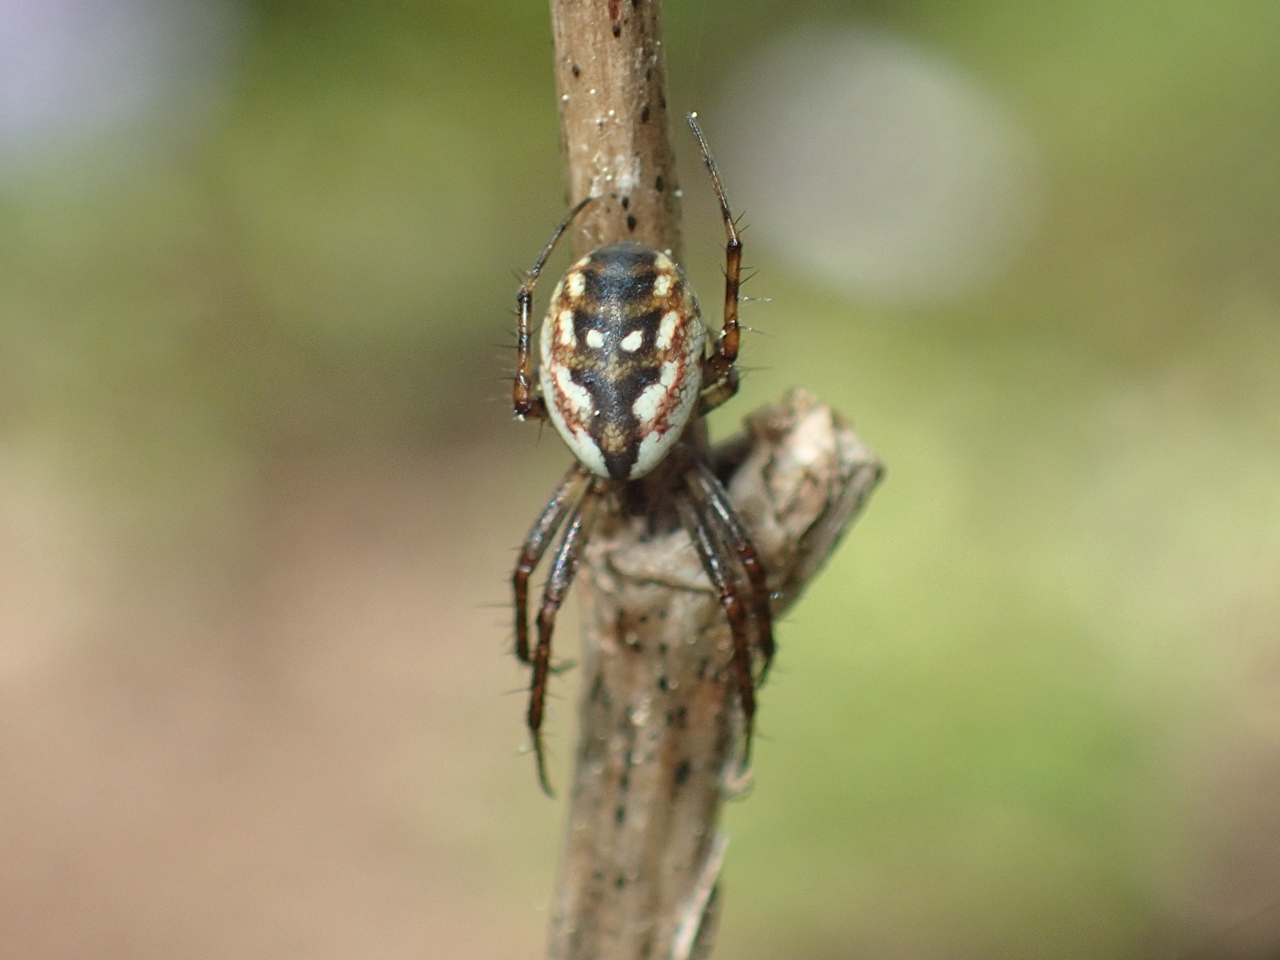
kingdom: Animalia
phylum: Arthropoda
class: Arachnida
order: Araneae
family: Araneidae
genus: Mangora
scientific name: Mangora placida
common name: Tuft-legged orbweaver
